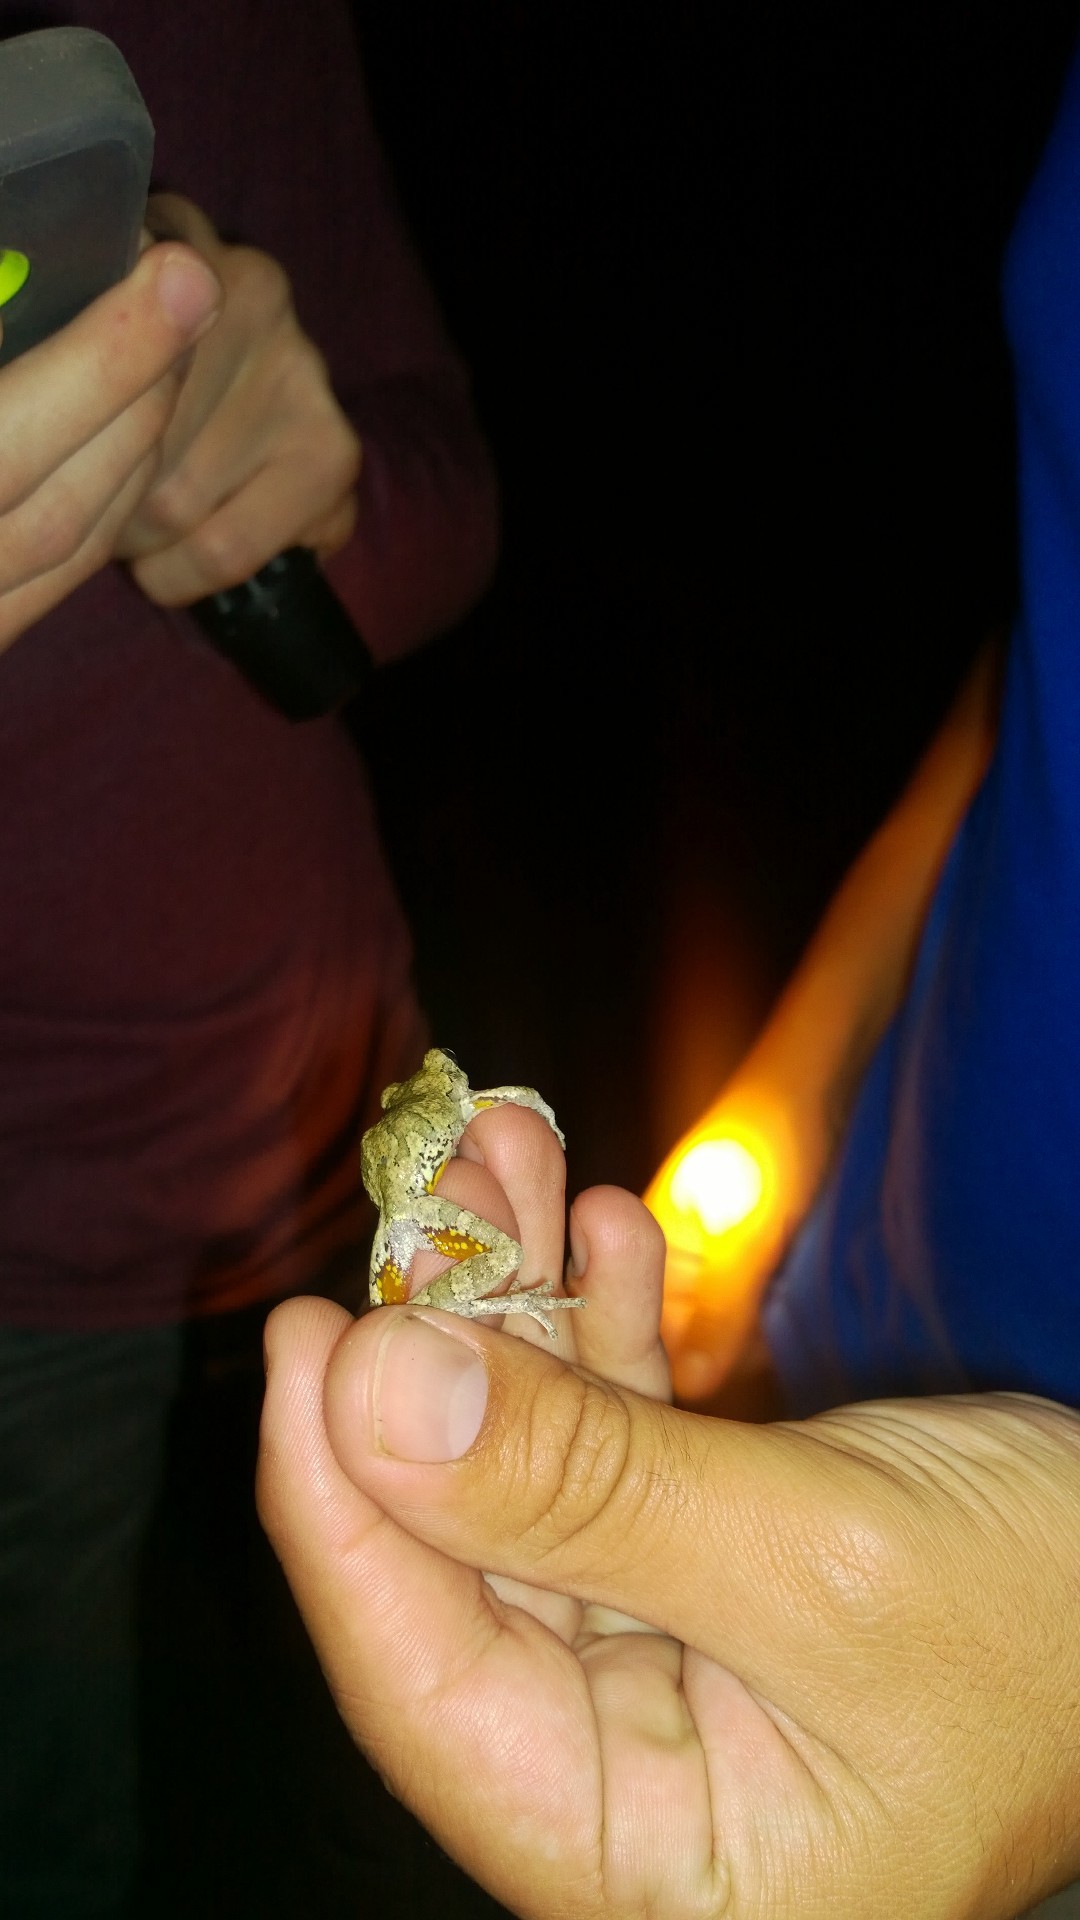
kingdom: Animalia
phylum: Chordata
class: Amphibia
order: Anura
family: Hylidae
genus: Hyla
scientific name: Hyla
